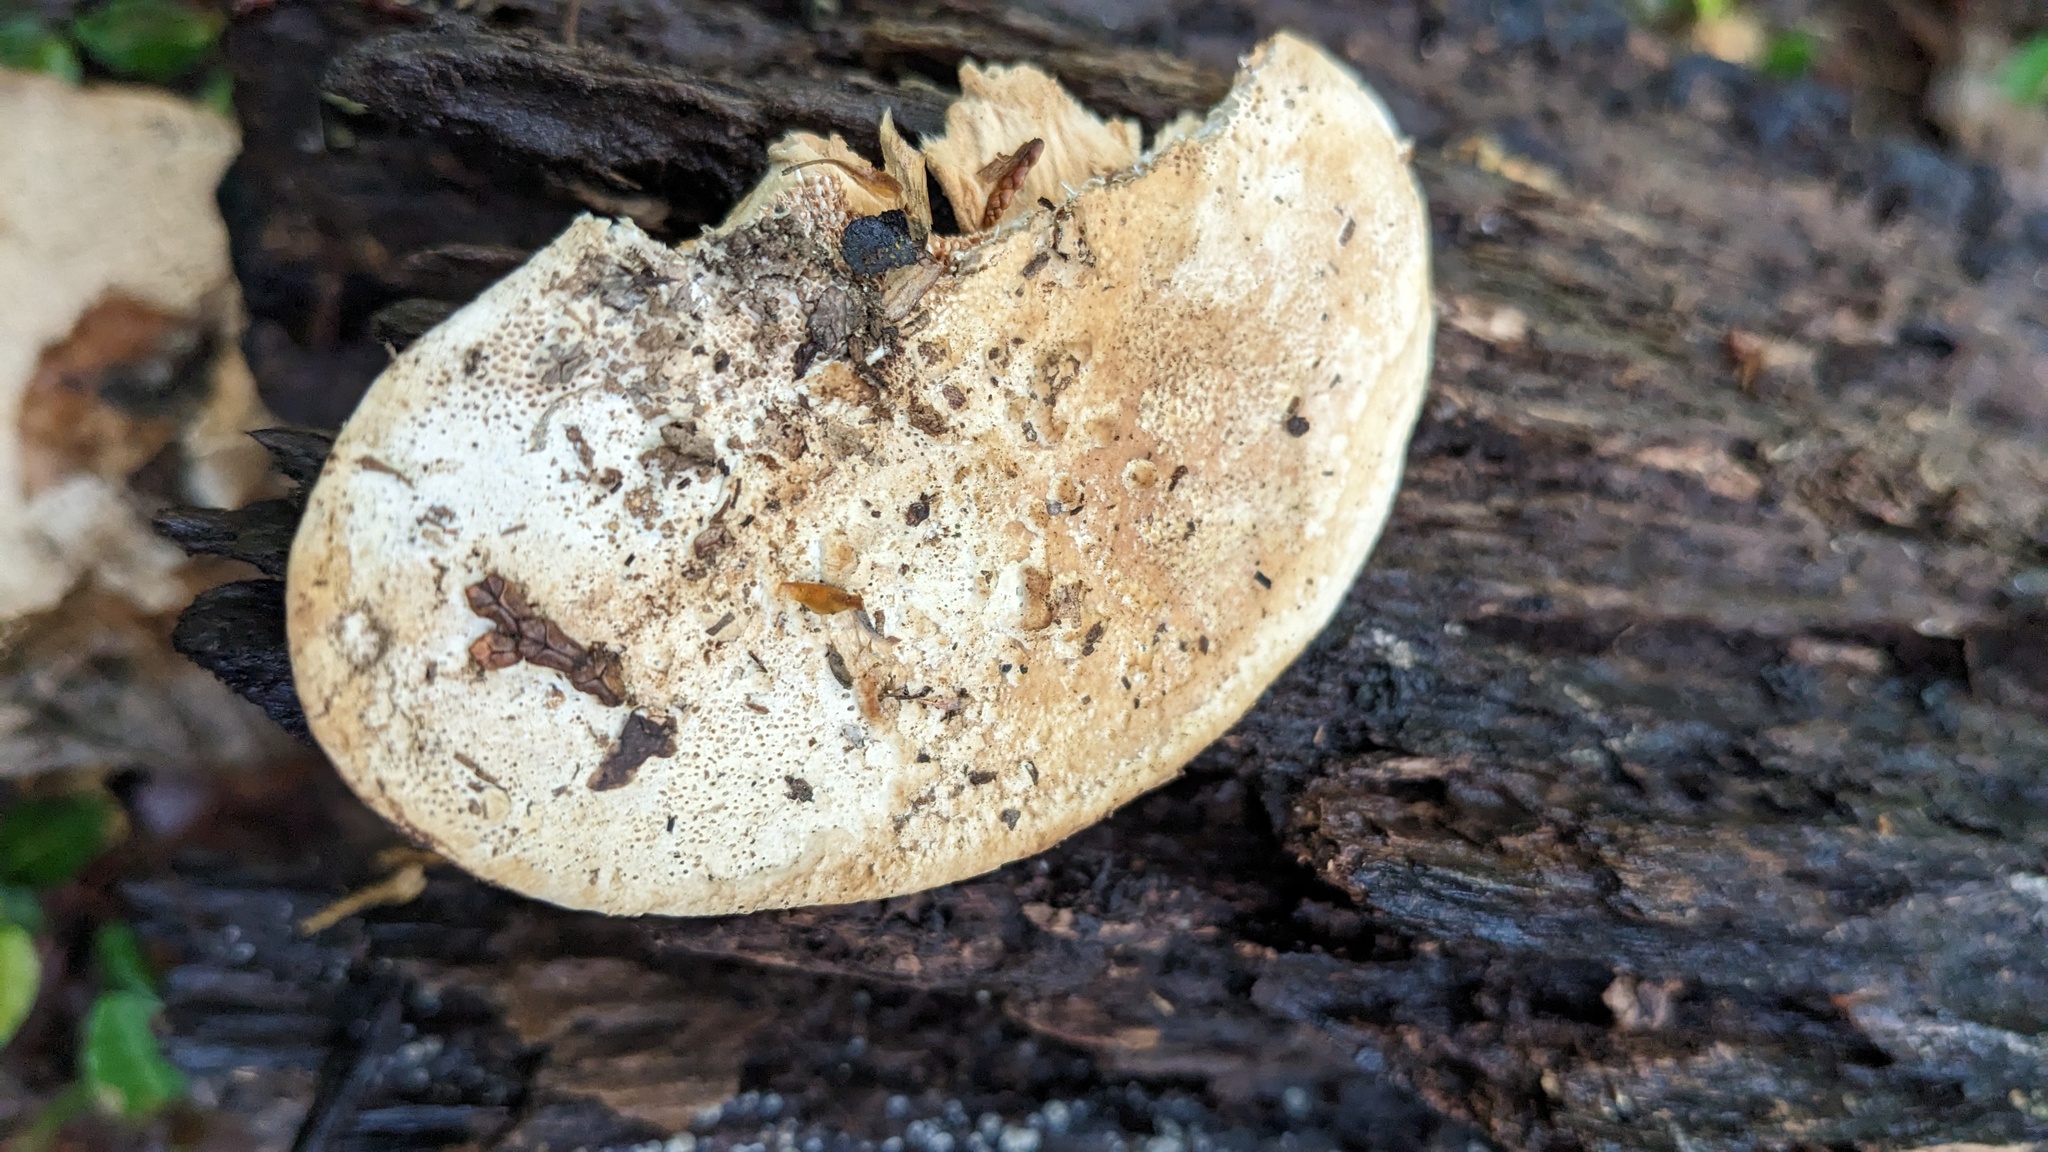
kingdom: Fungi
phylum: Basidiomycota
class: Agaricomycetes
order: Polyporales
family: Fomitopsidaceae
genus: Fomitopsis
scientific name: Fomitopsis
